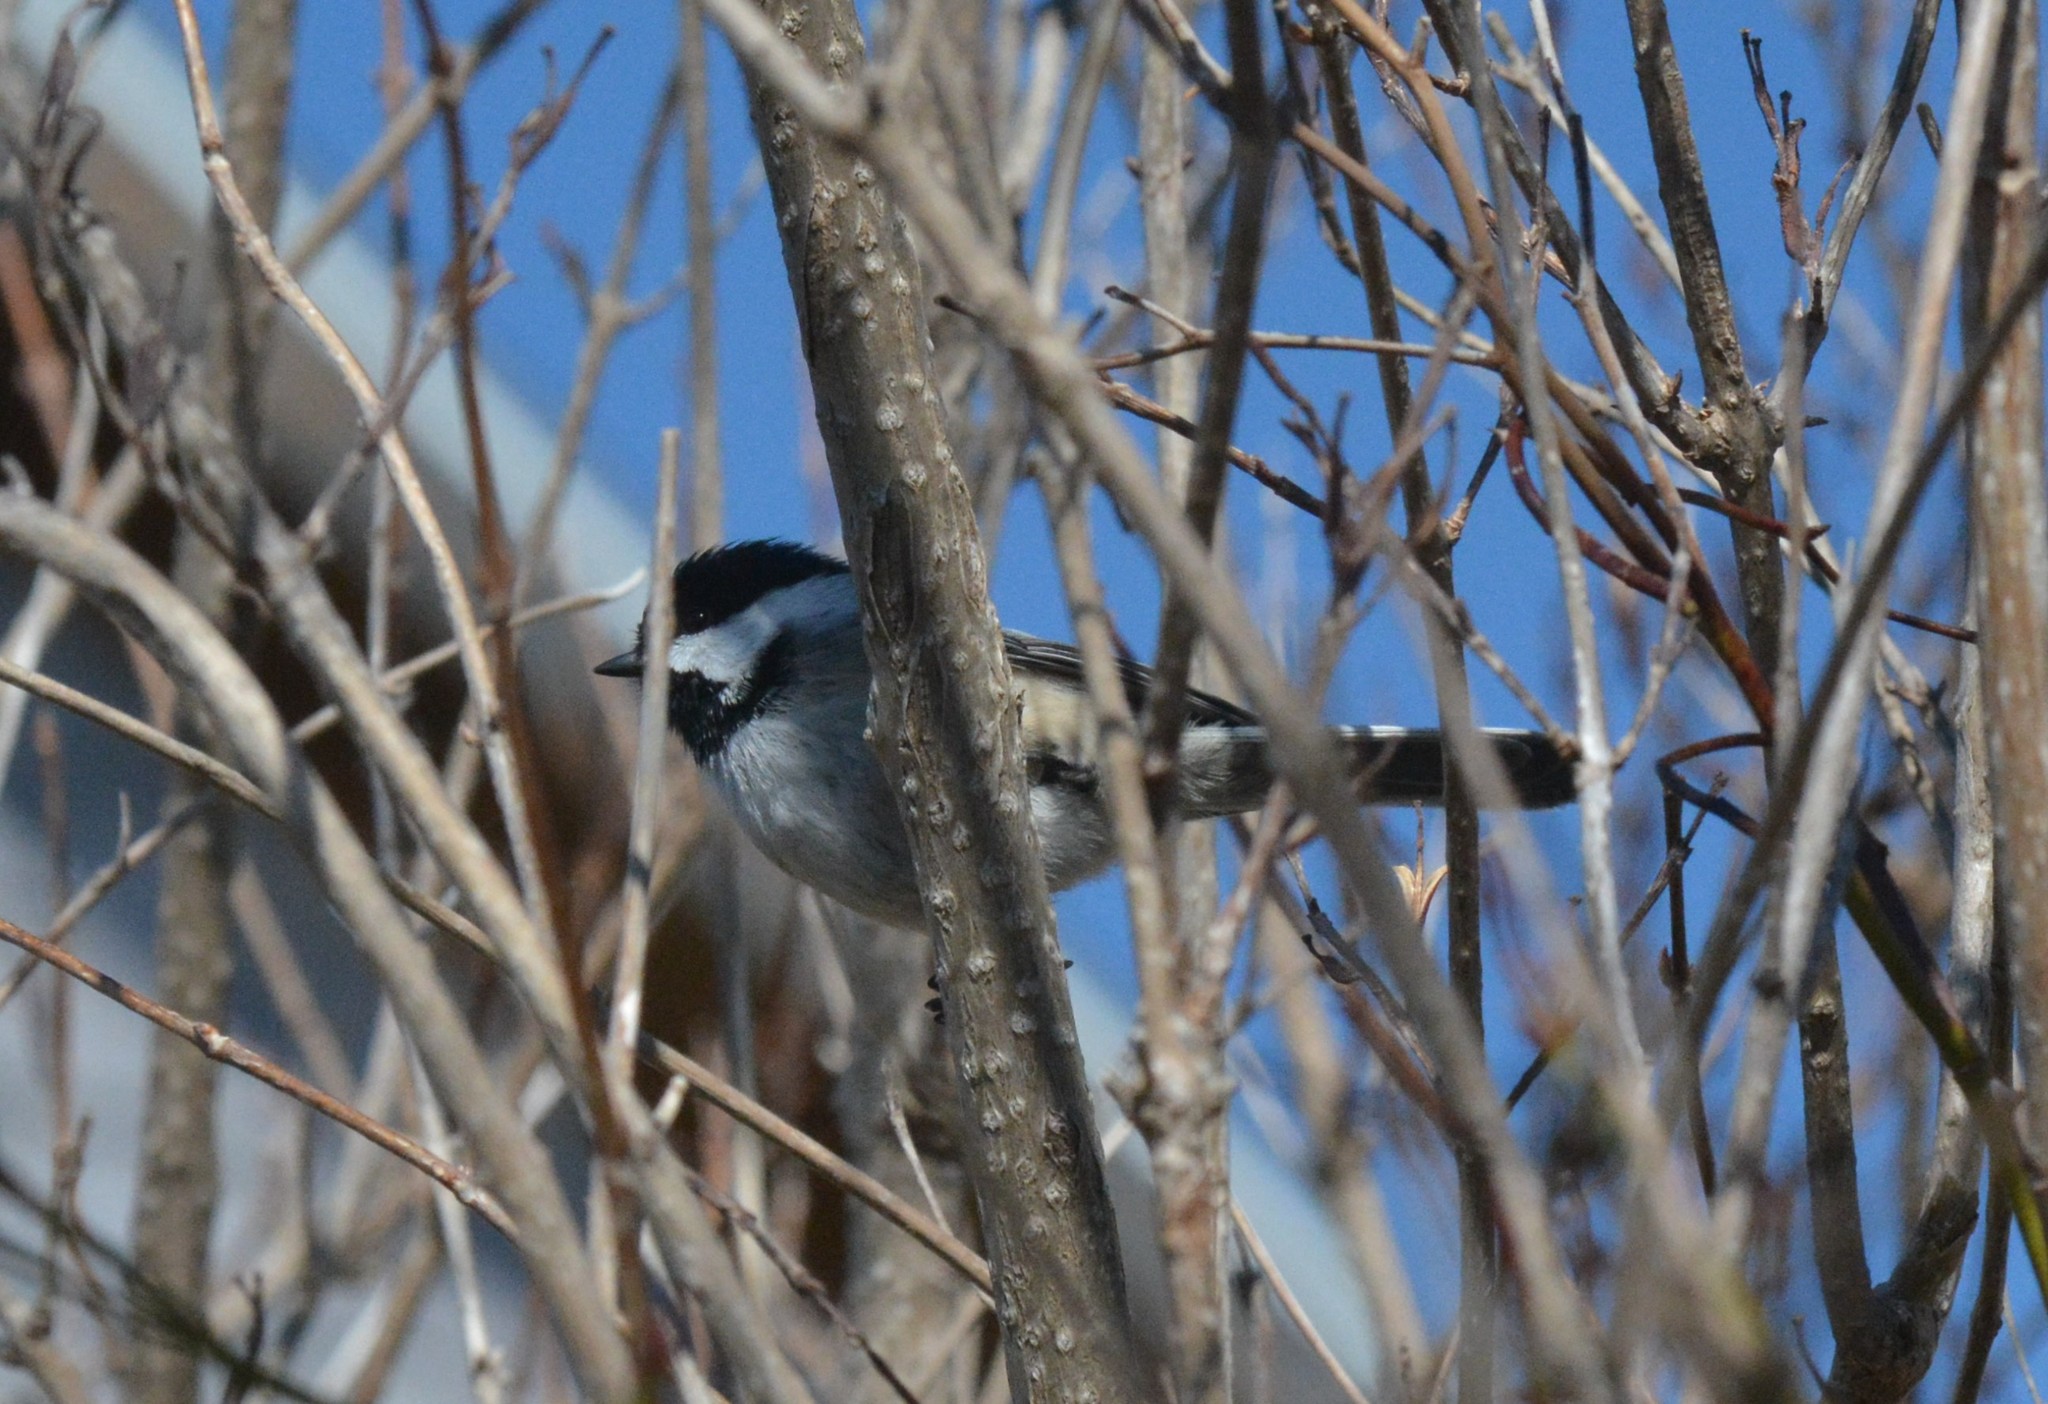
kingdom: Animalia
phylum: Chordata
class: Aves
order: Passeriformes
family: Paridae
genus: Poecile
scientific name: Poecile atricapillus
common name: Black-capped chickadee
